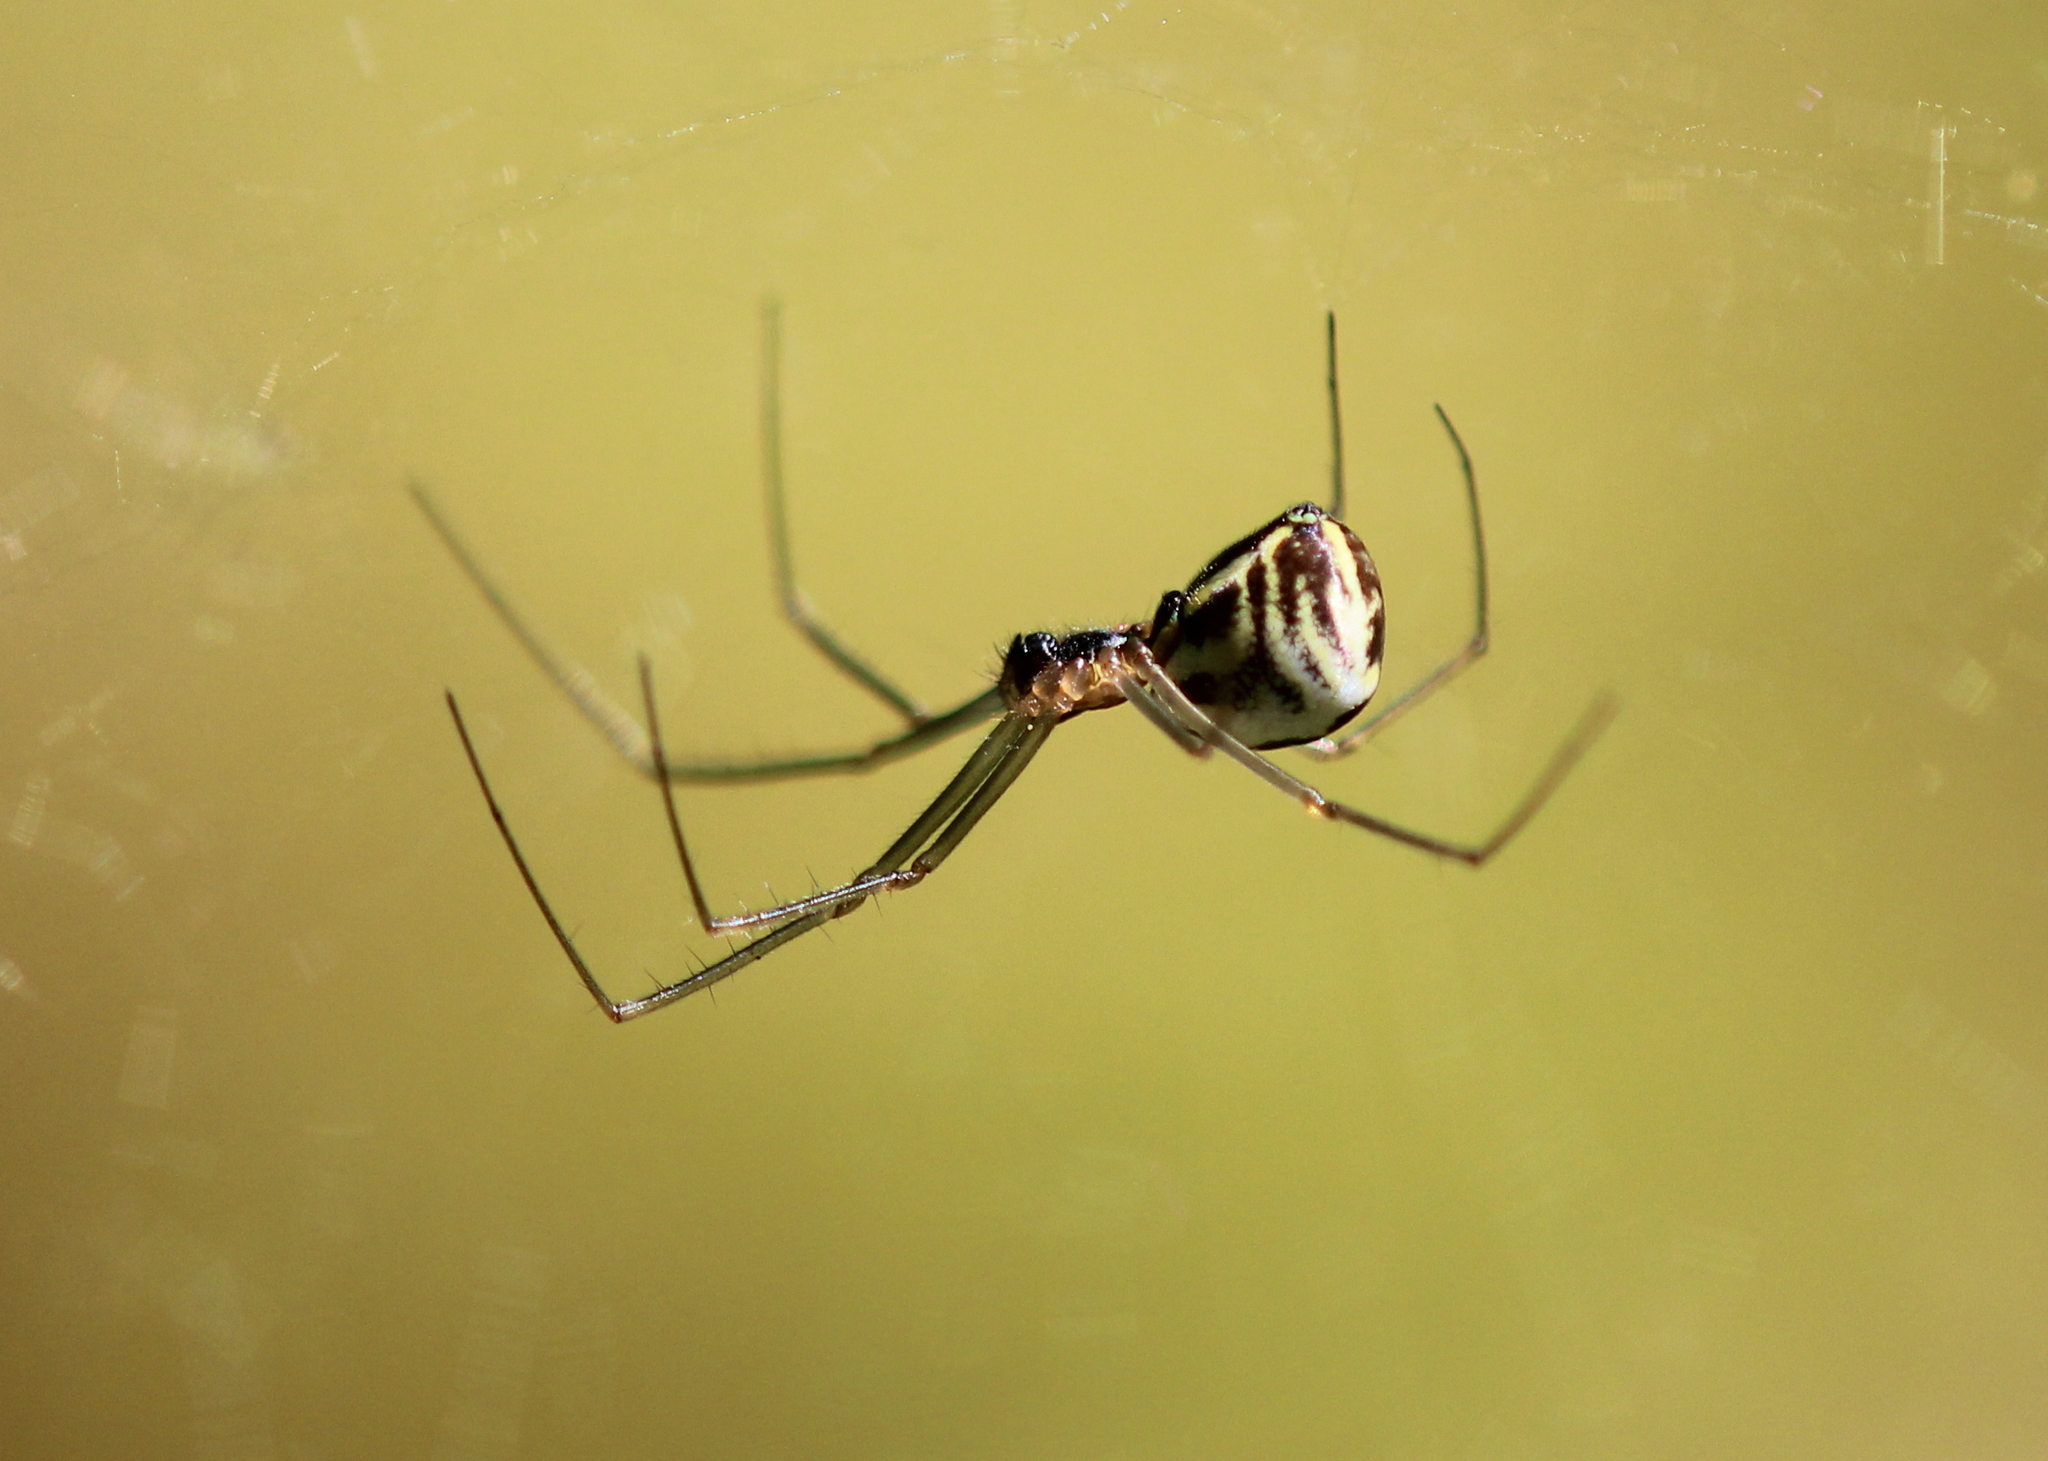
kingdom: Animalia
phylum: Arthropoda
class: Arachnida
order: Araneae
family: Linyphiidae
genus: Neriene
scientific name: Neriene radiata
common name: Filmy dome spider
